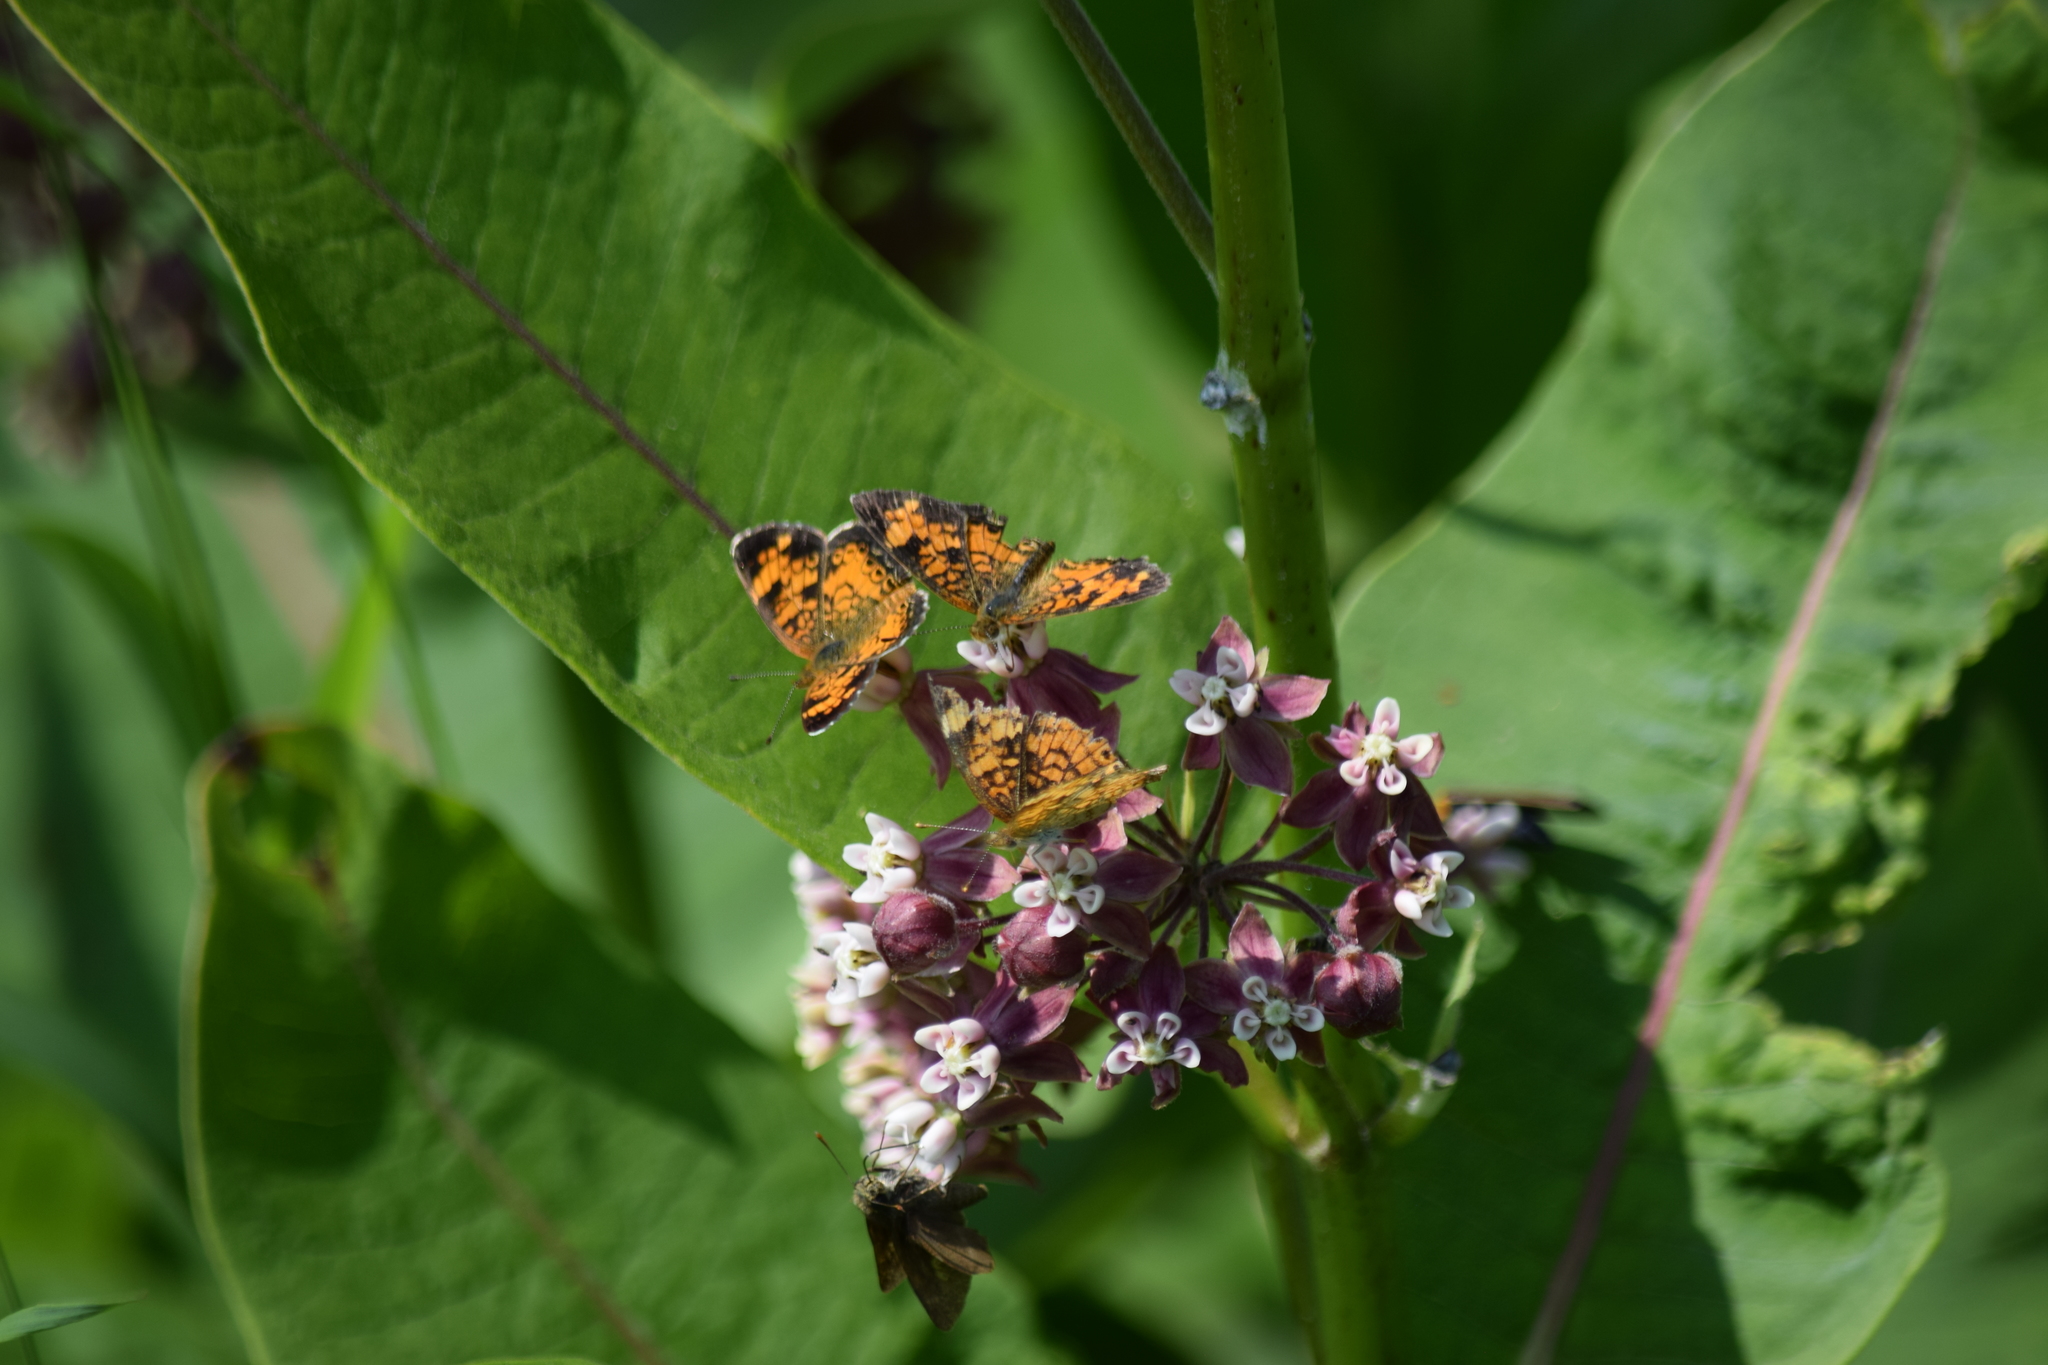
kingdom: Animalia
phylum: Arthropoda
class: Insecta
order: Lepidoptera
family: Nymphalidae
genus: Phyciodes
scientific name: Phyciodes tharos
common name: Pearl crescent
